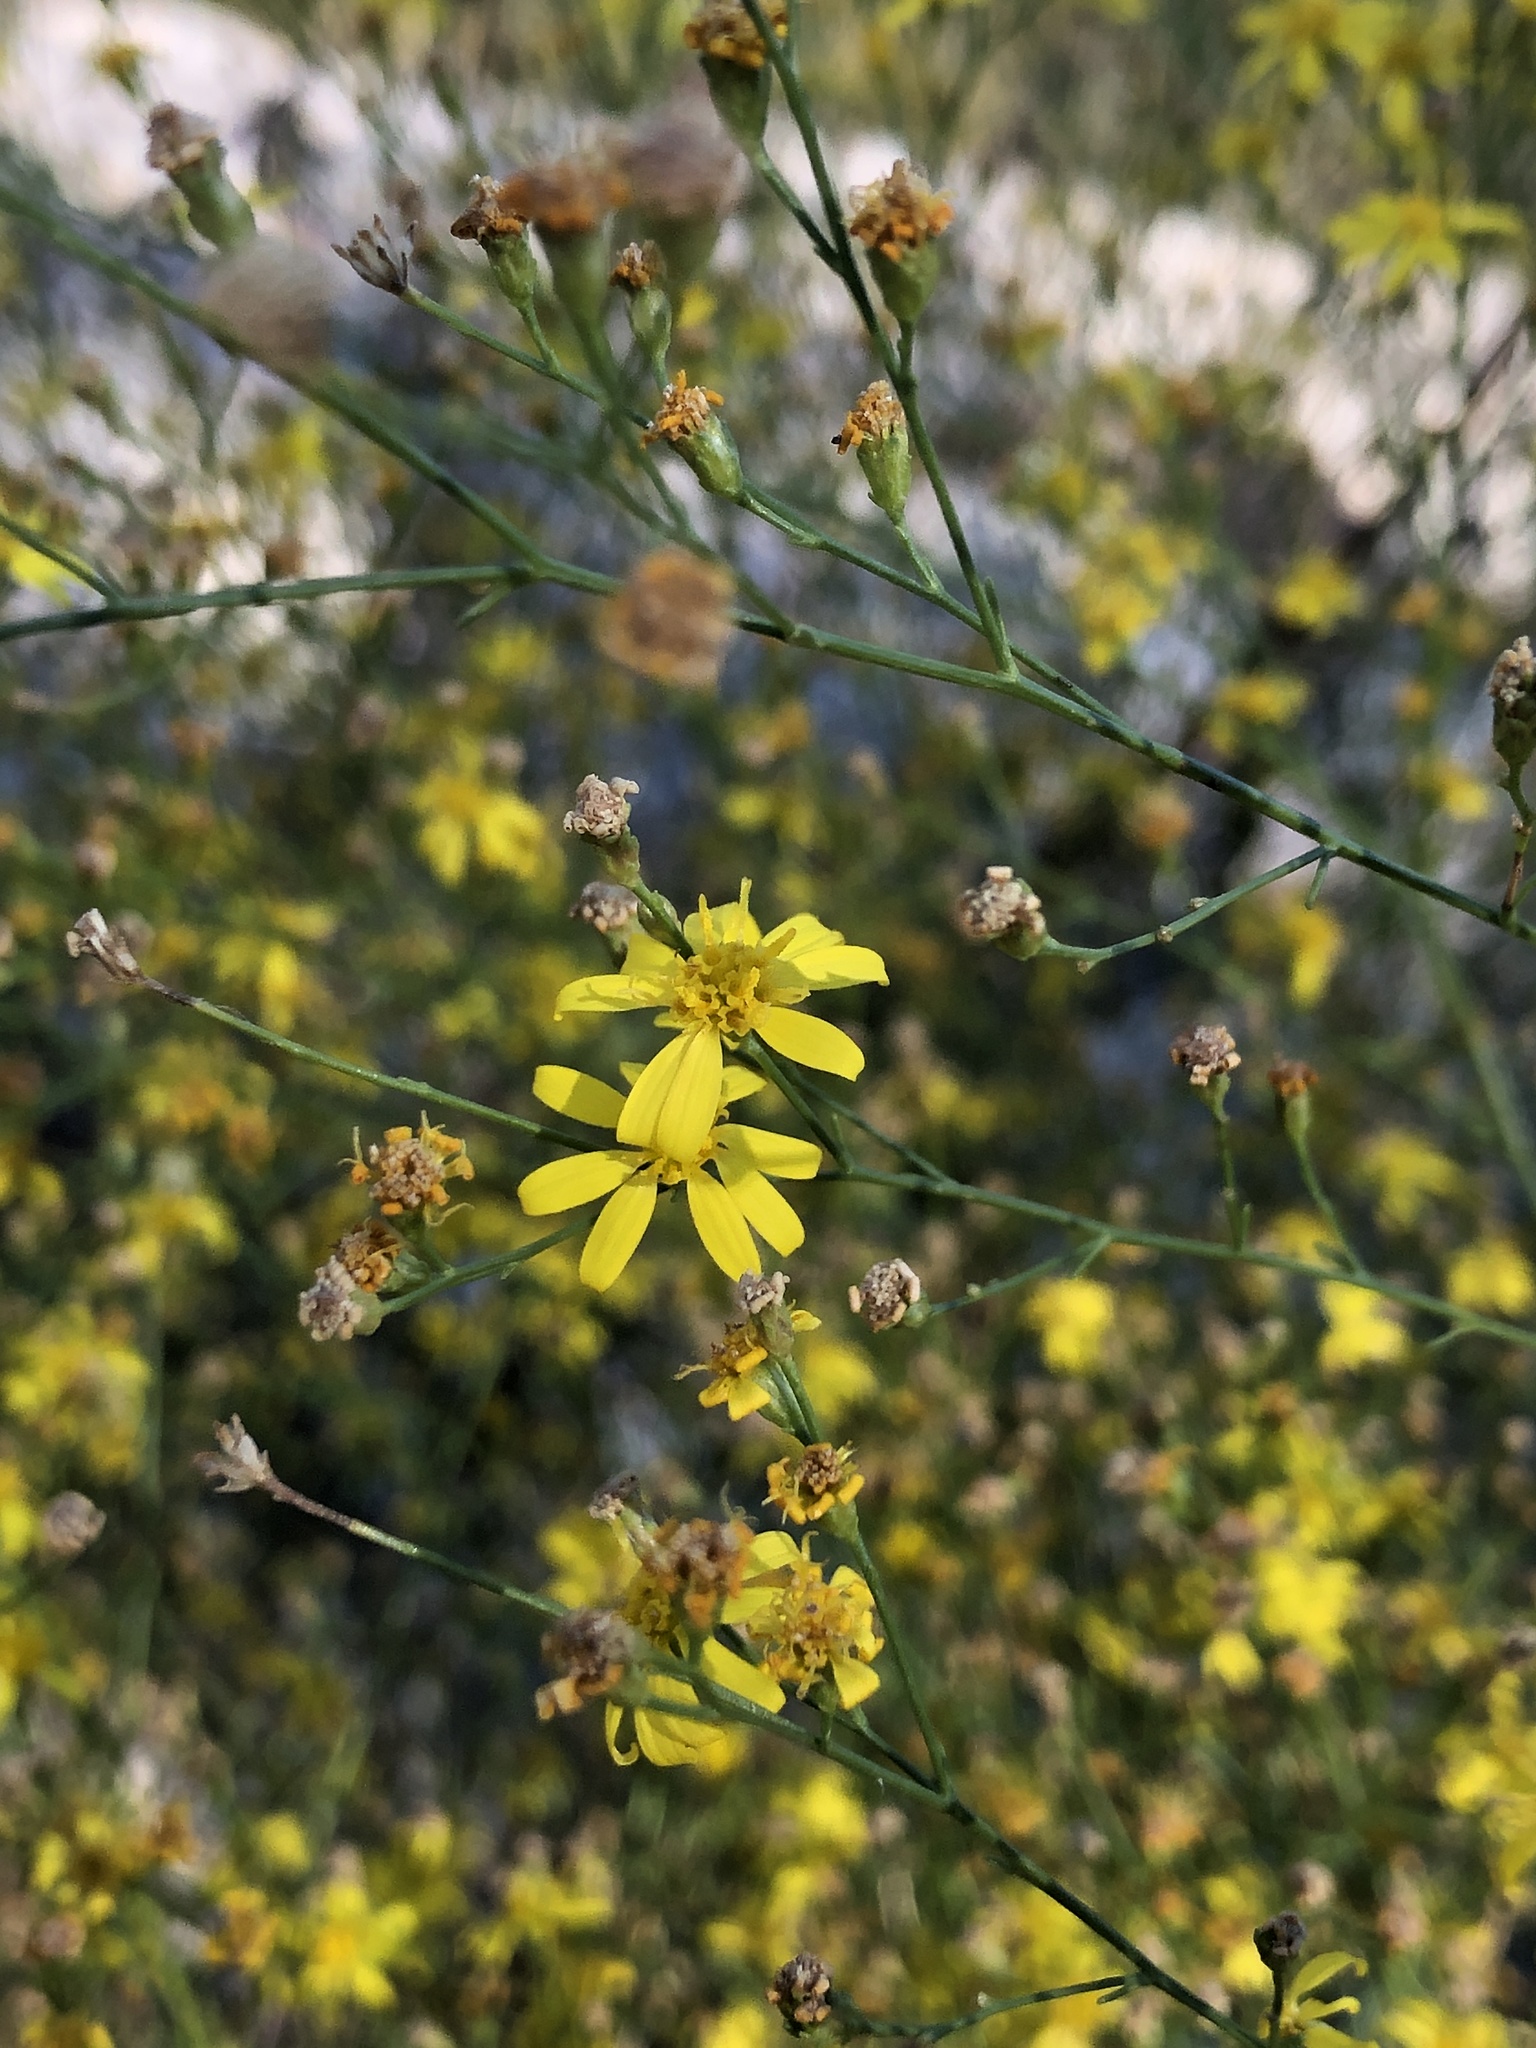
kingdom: Plantae
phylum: Tracheophyta
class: Magnoliopsida
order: Asterales
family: Asteraceae
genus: Gutierrezia
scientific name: Gutierrezia texana
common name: Texas snakeweed
